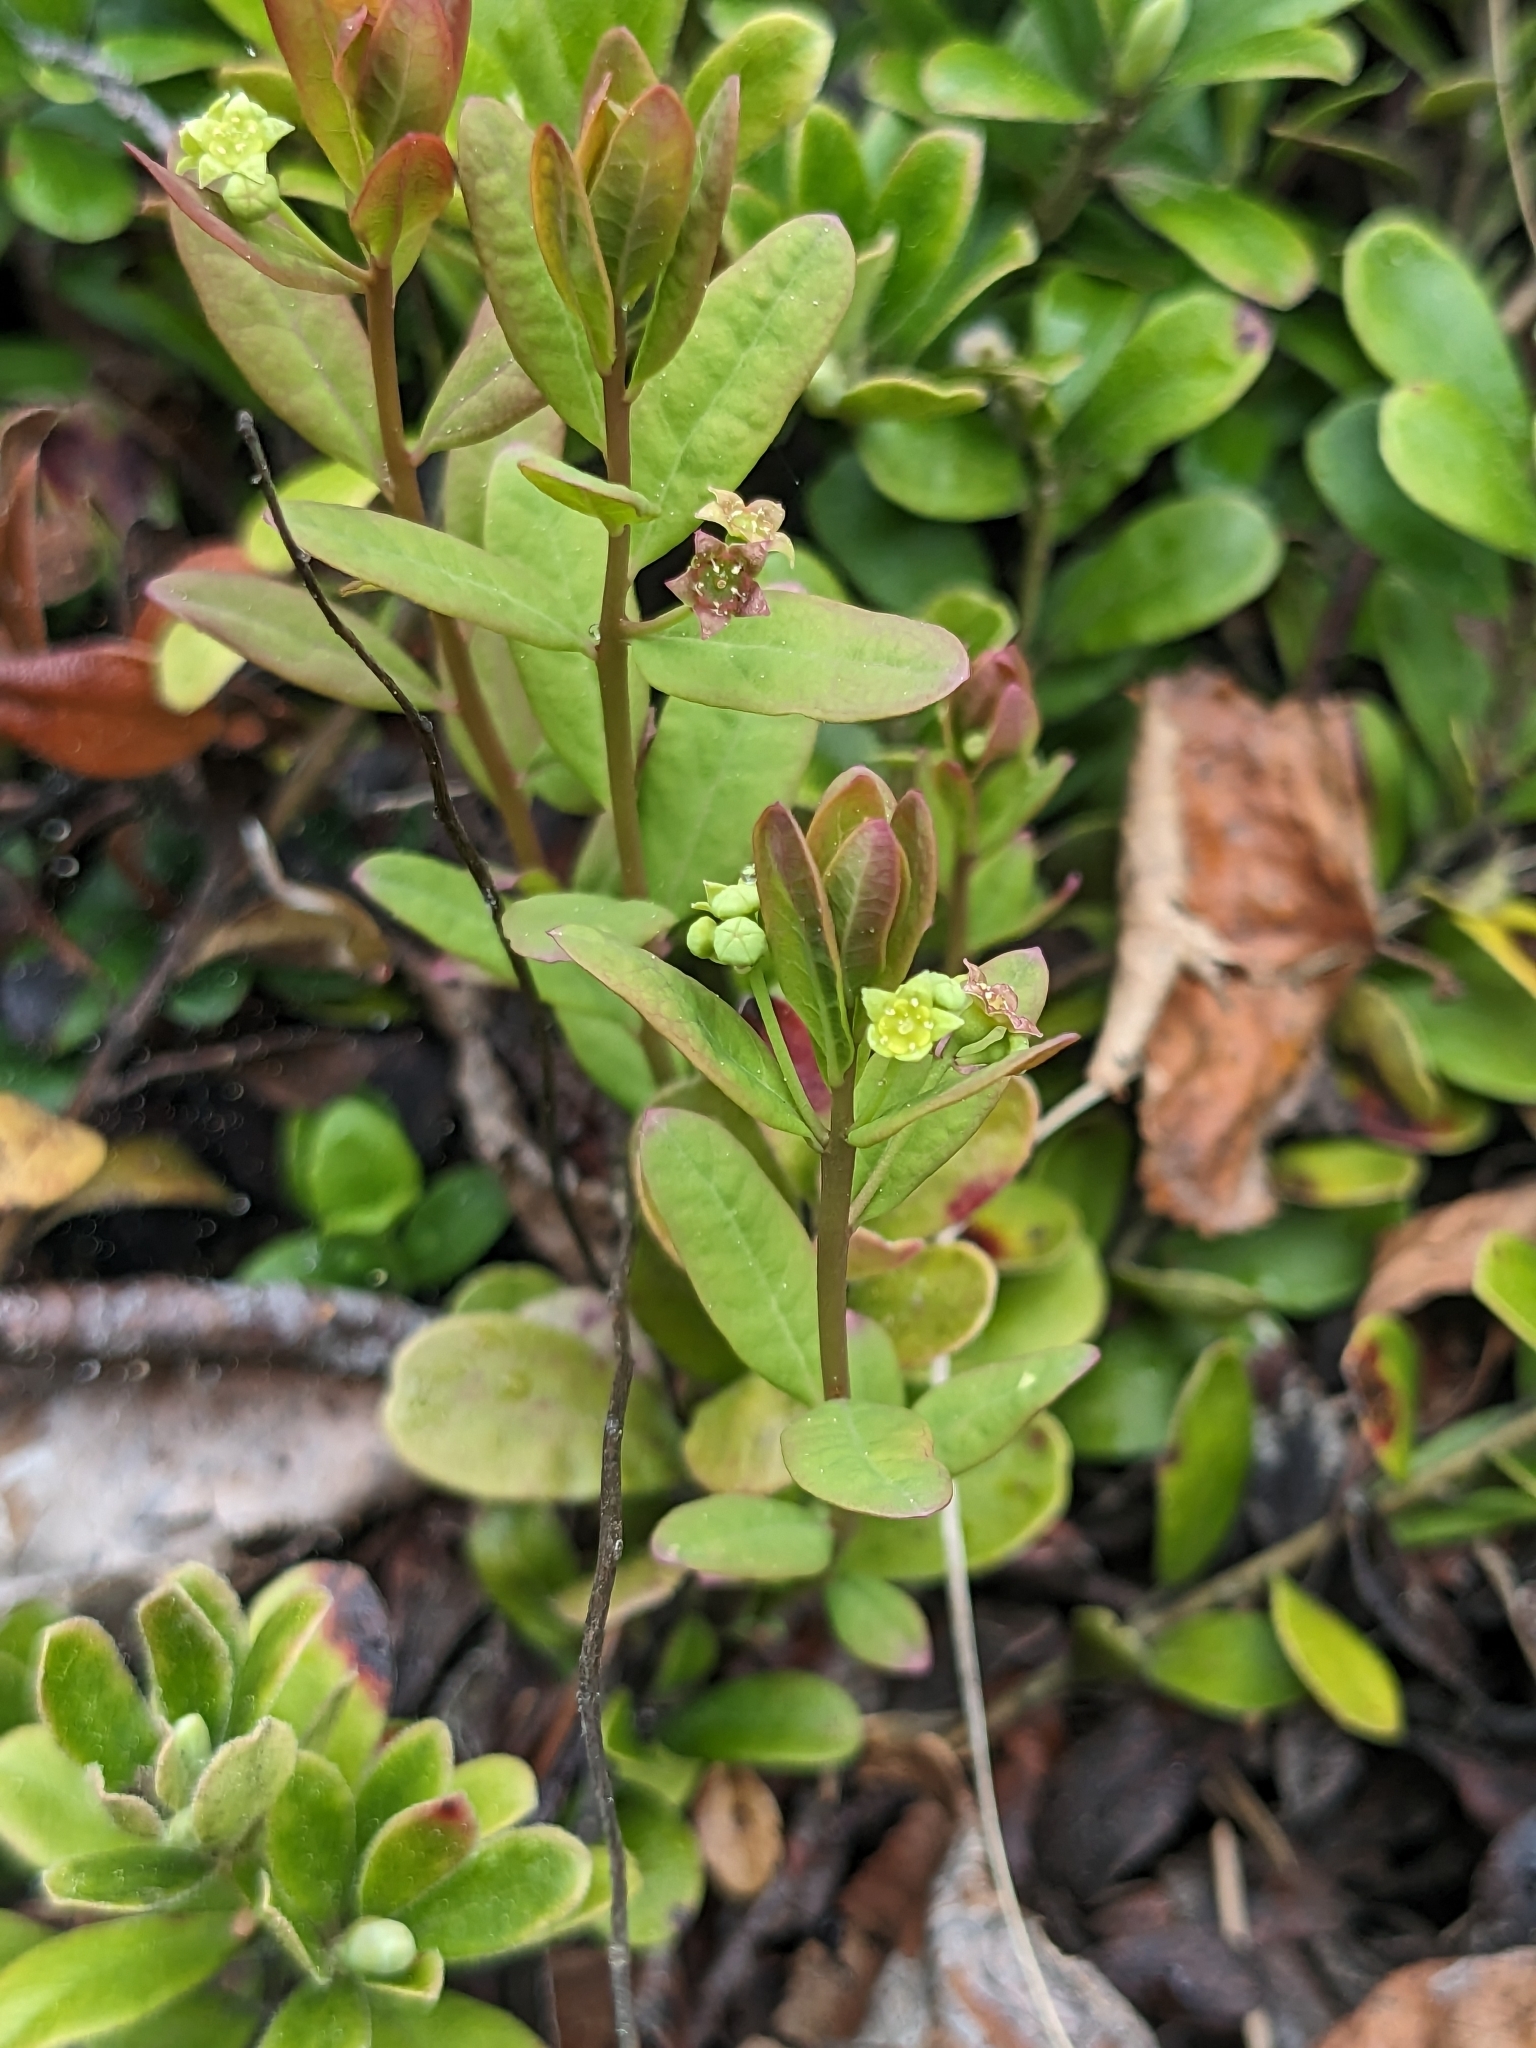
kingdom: Plantae
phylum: Tracheophyta
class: Magnoliopsida
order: Santalales
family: Comandraceae
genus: Geocaulon
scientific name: Geocaulon lividum
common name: Earthberry
